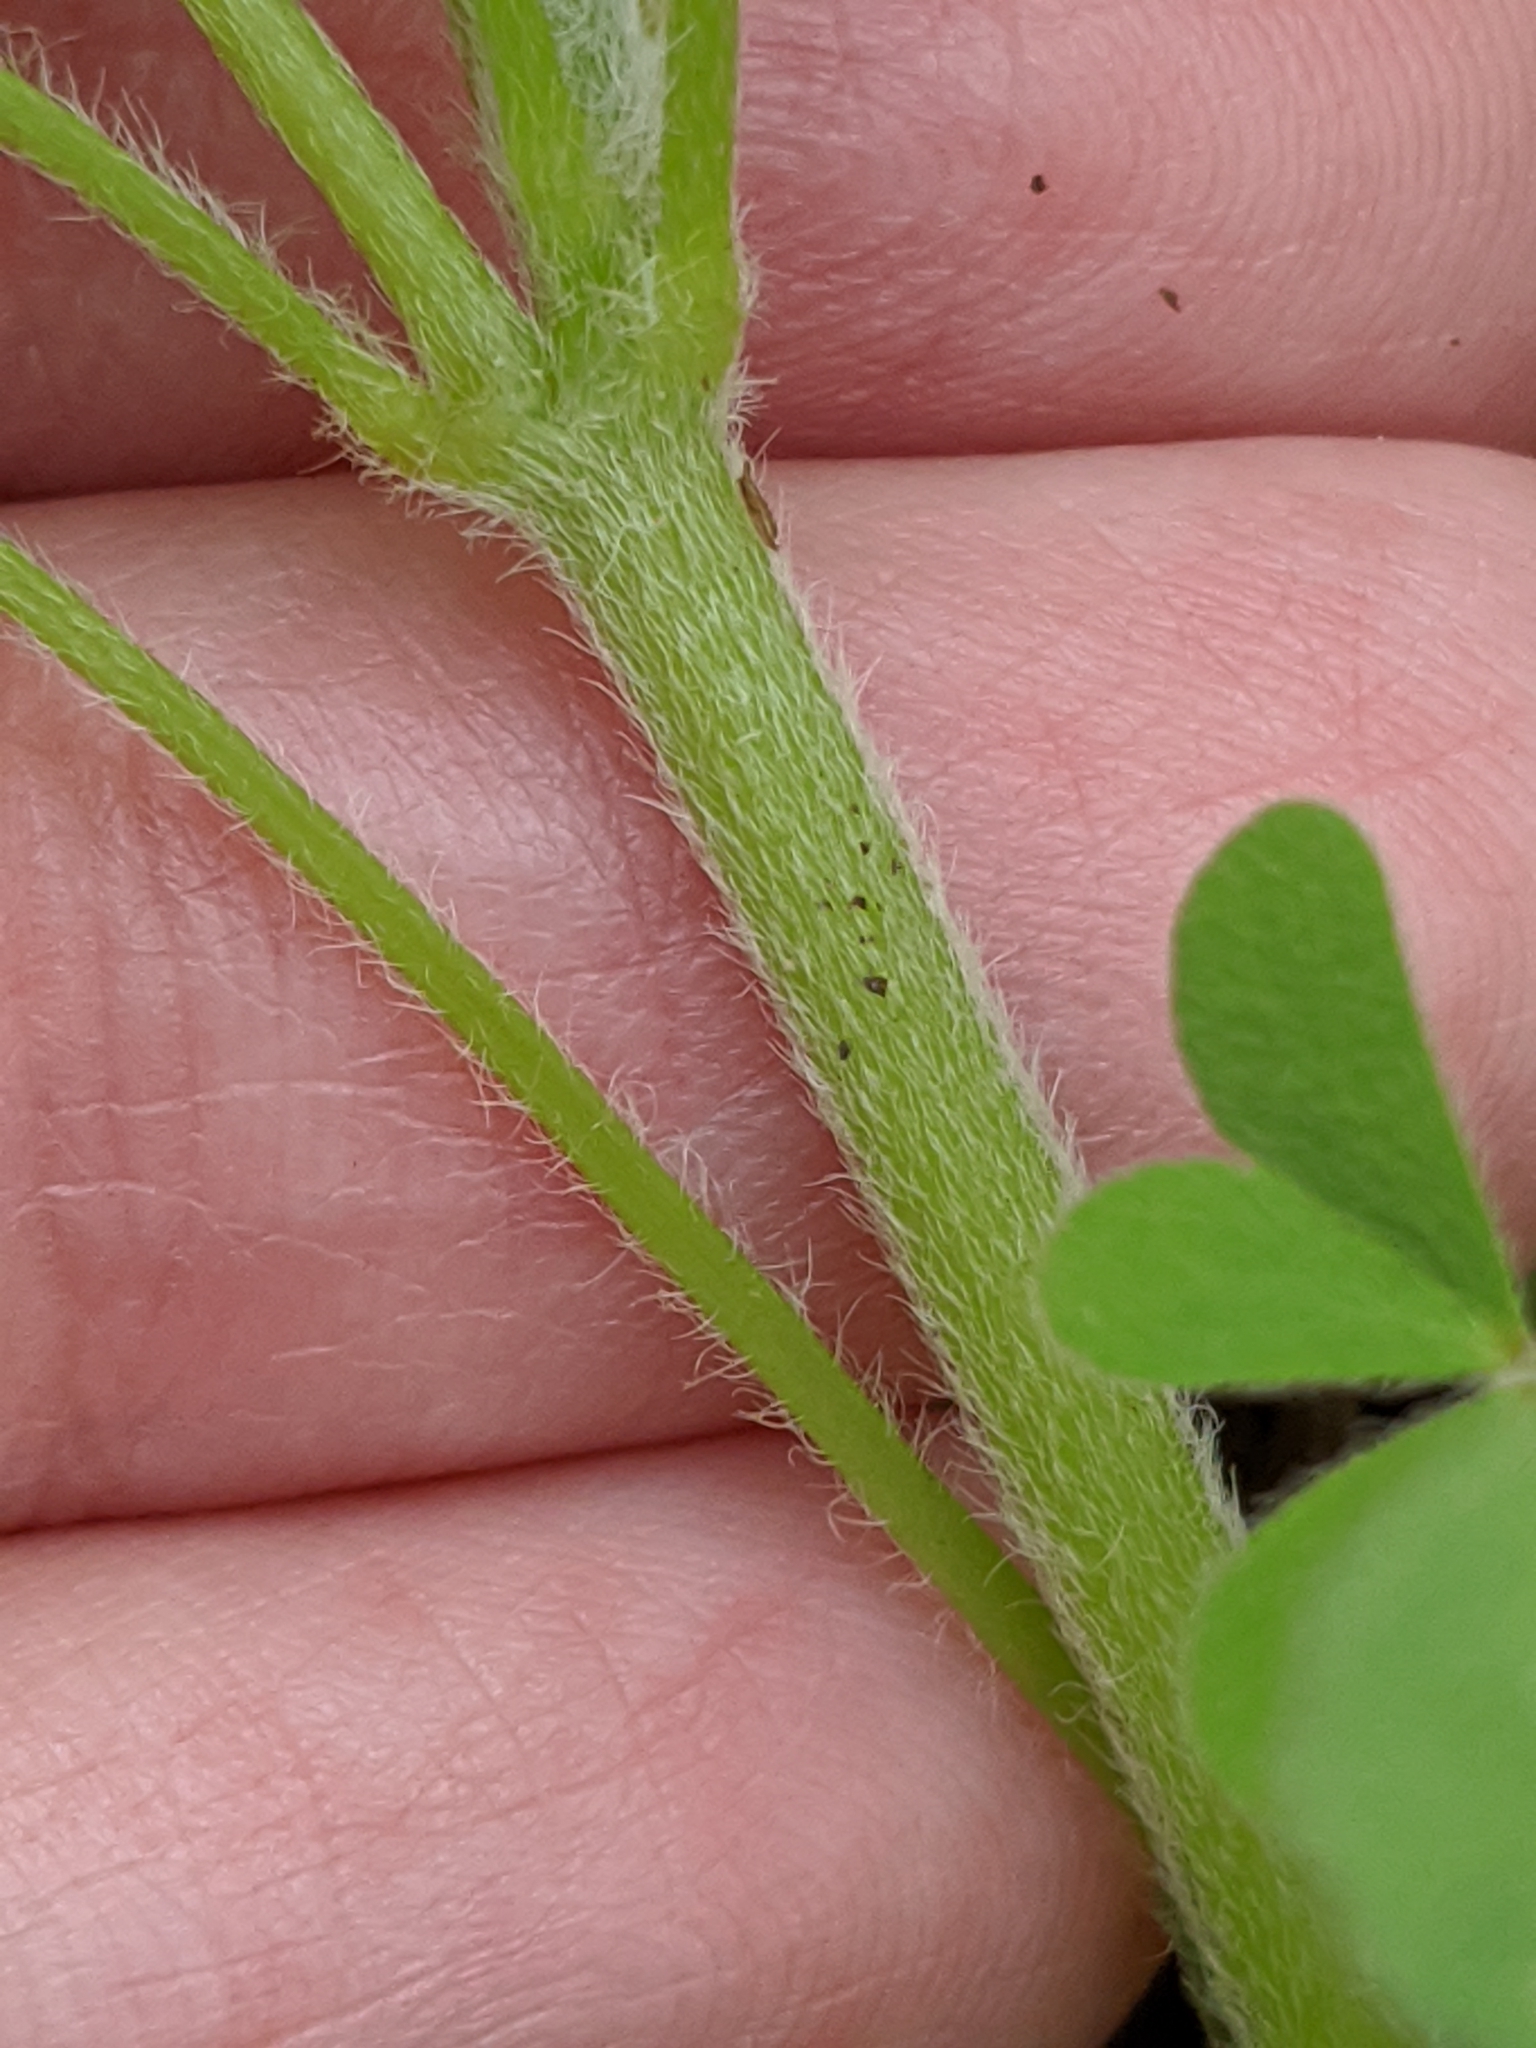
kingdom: Plantae
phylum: Tracheophyta
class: Magnoliopsida
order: Oxalidales
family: Oxalidaceae
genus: Oxalis
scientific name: Oxalis dillenii
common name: Sussex yellow-sorrel
